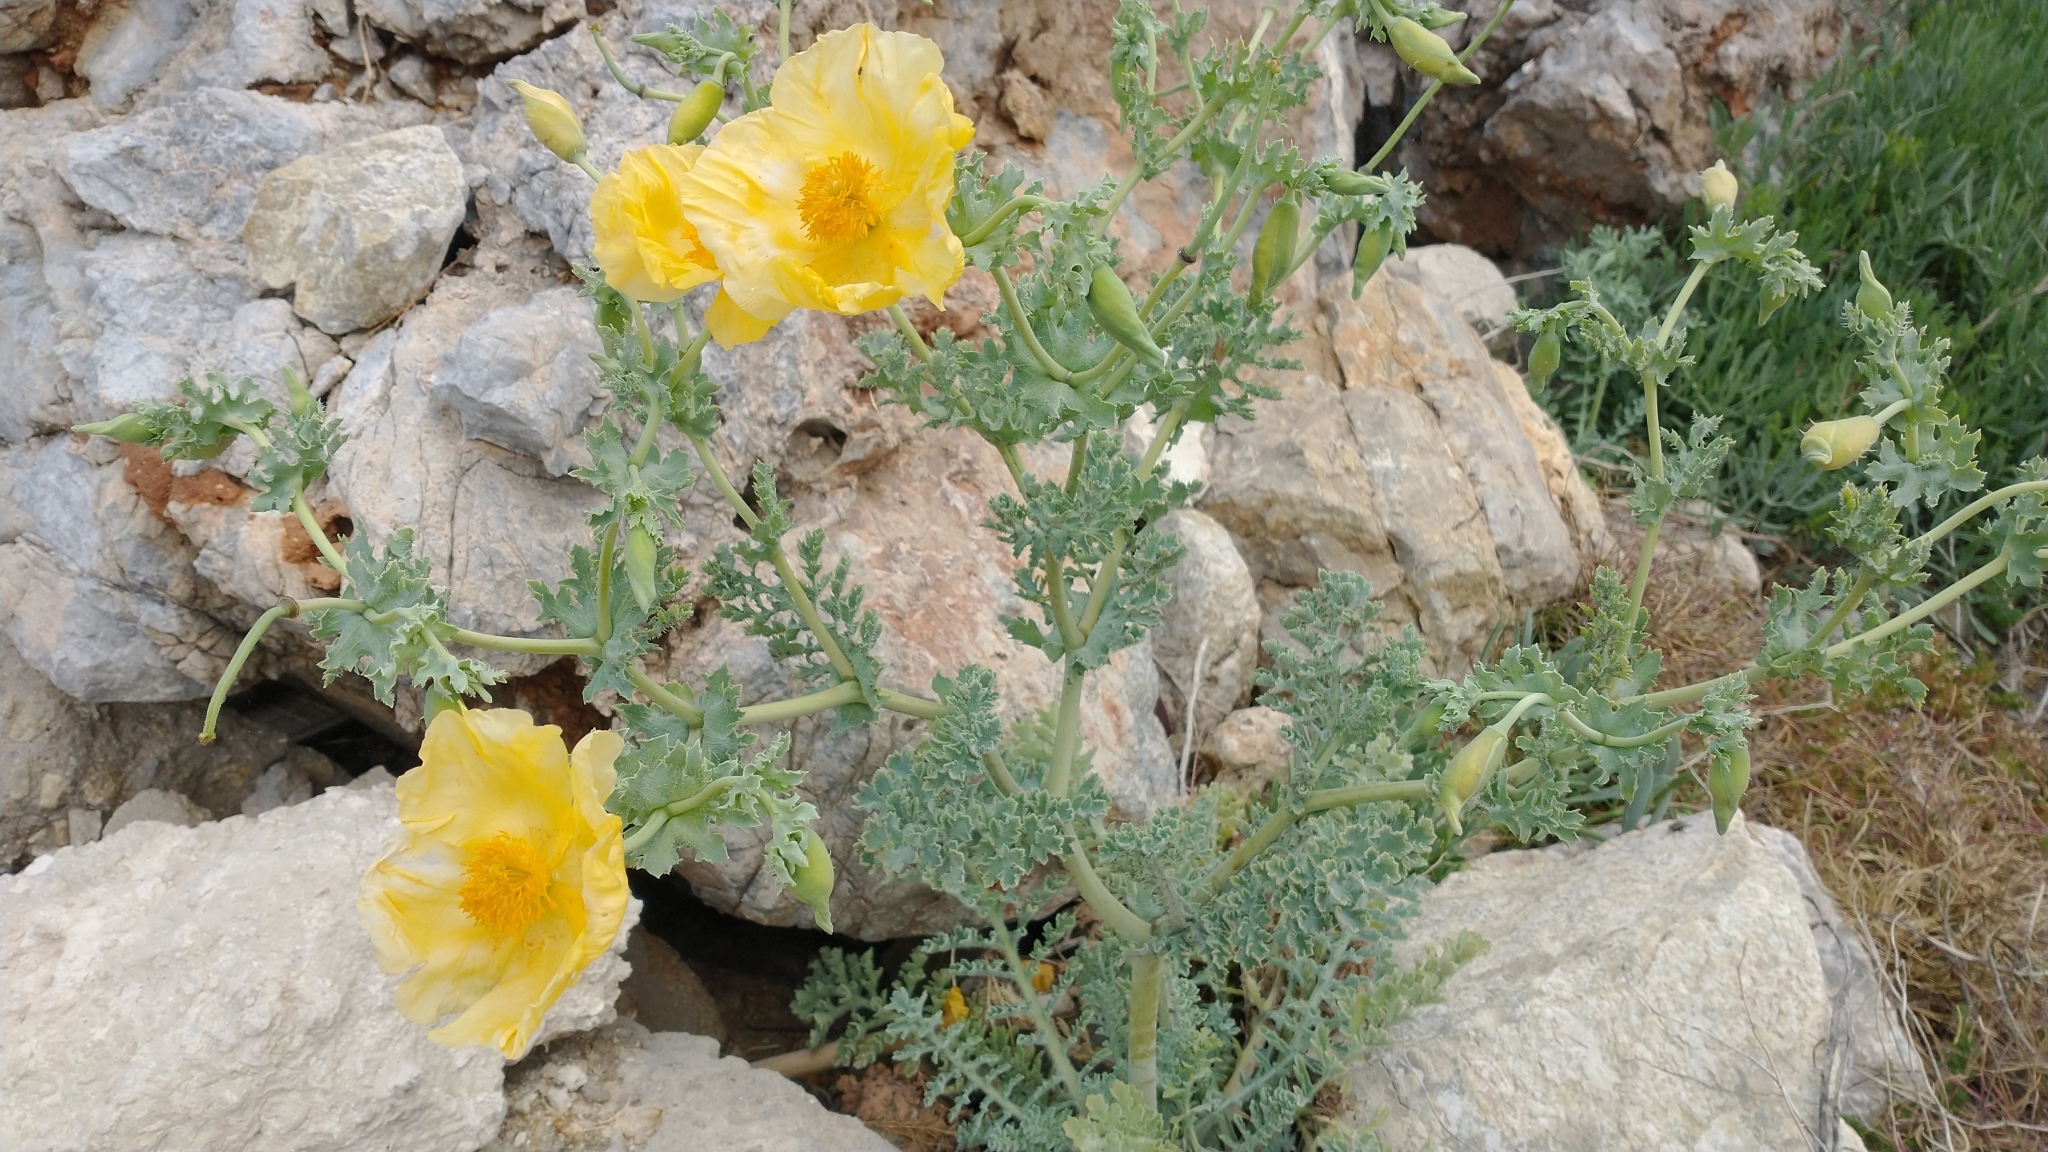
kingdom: Plantae
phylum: Tracheophyta
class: Magnoliopsida
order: Ranunculales
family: Papaveraceae
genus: Glaucium
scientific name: Glaucium flavum
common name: Yellow horned-poppy
